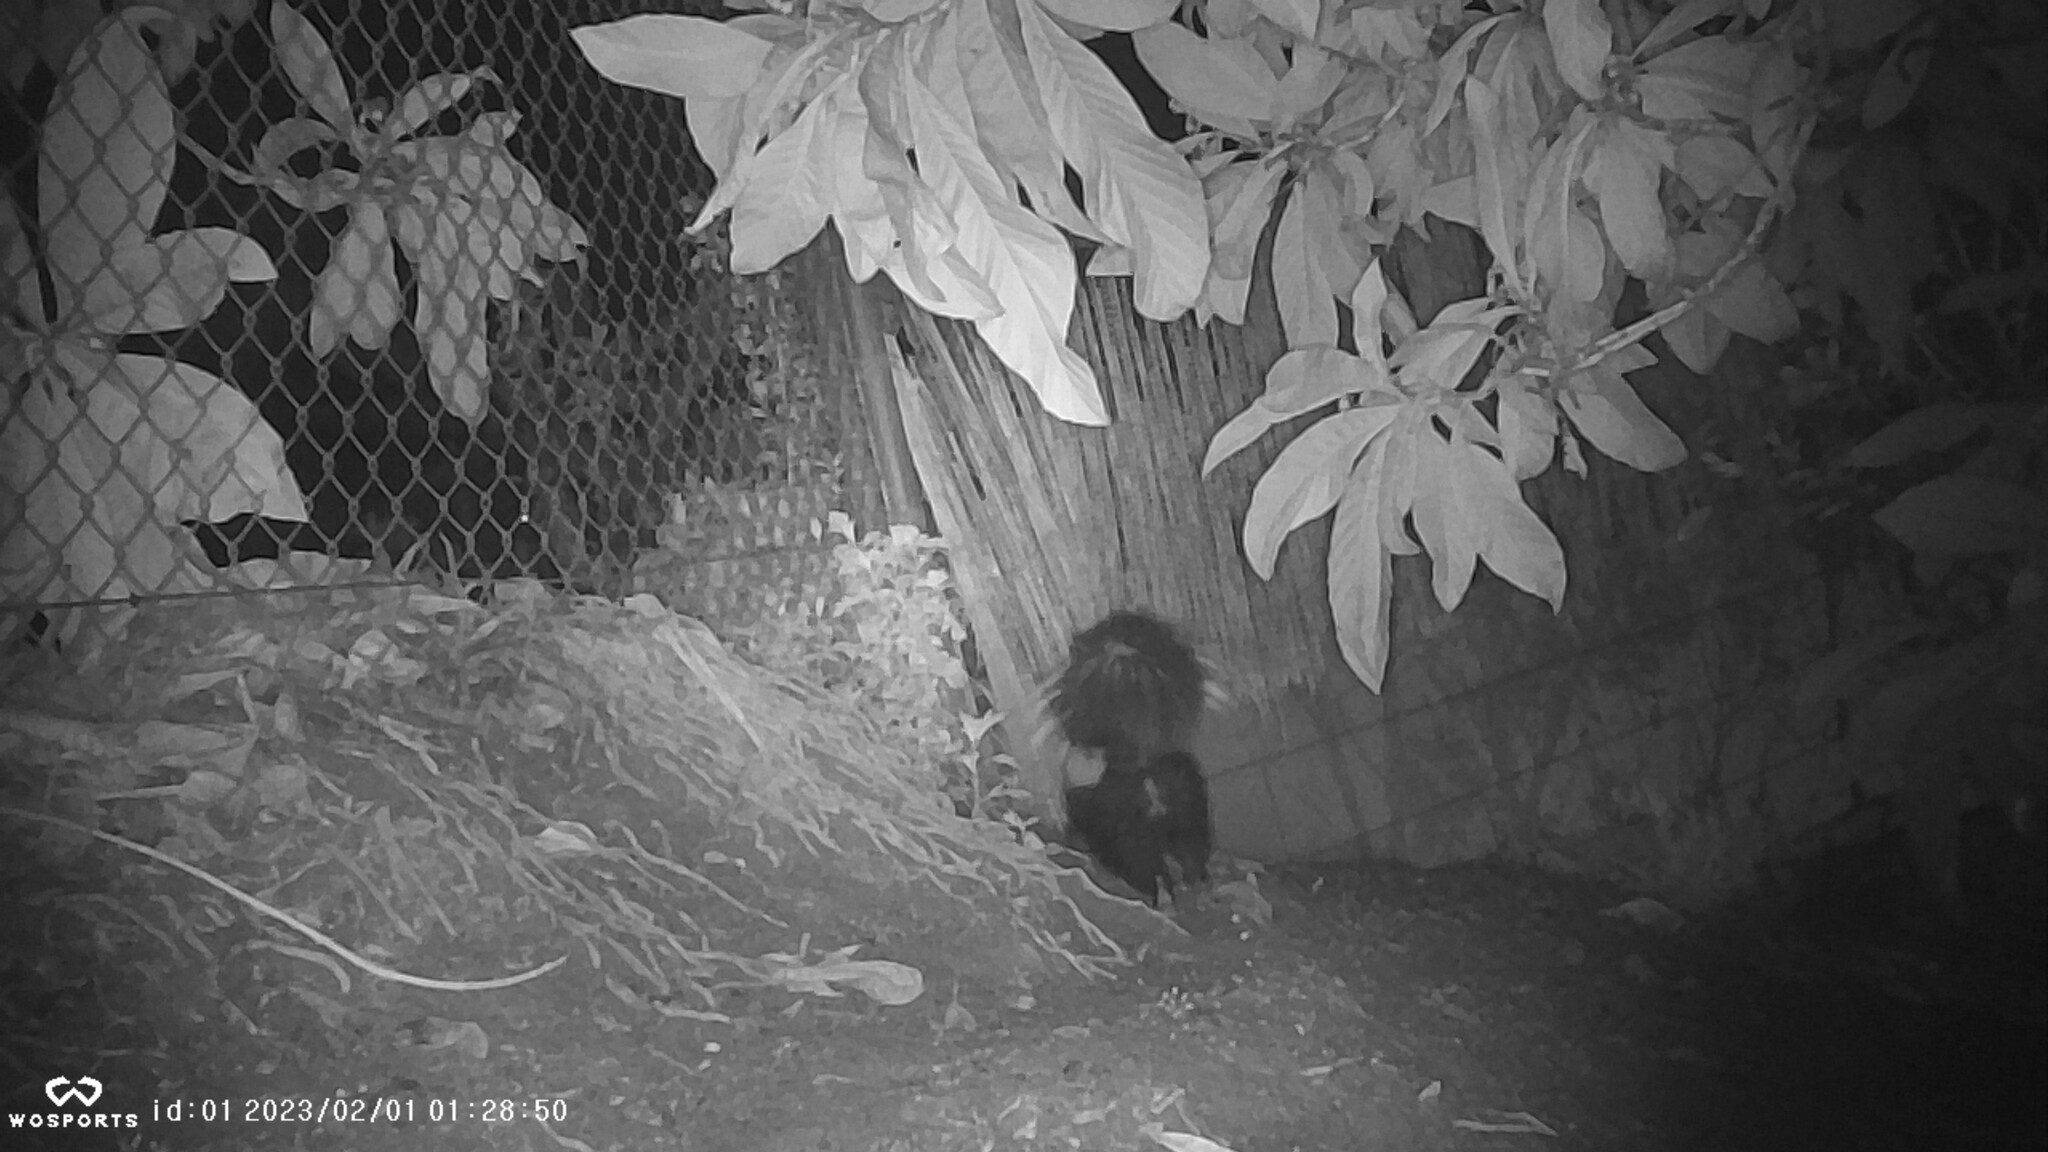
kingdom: Animalia
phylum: Chordata
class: Mammalia
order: Carnivora
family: Mephitidae
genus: Mephitis
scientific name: Mephitis mephitis
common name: Striped skunk
